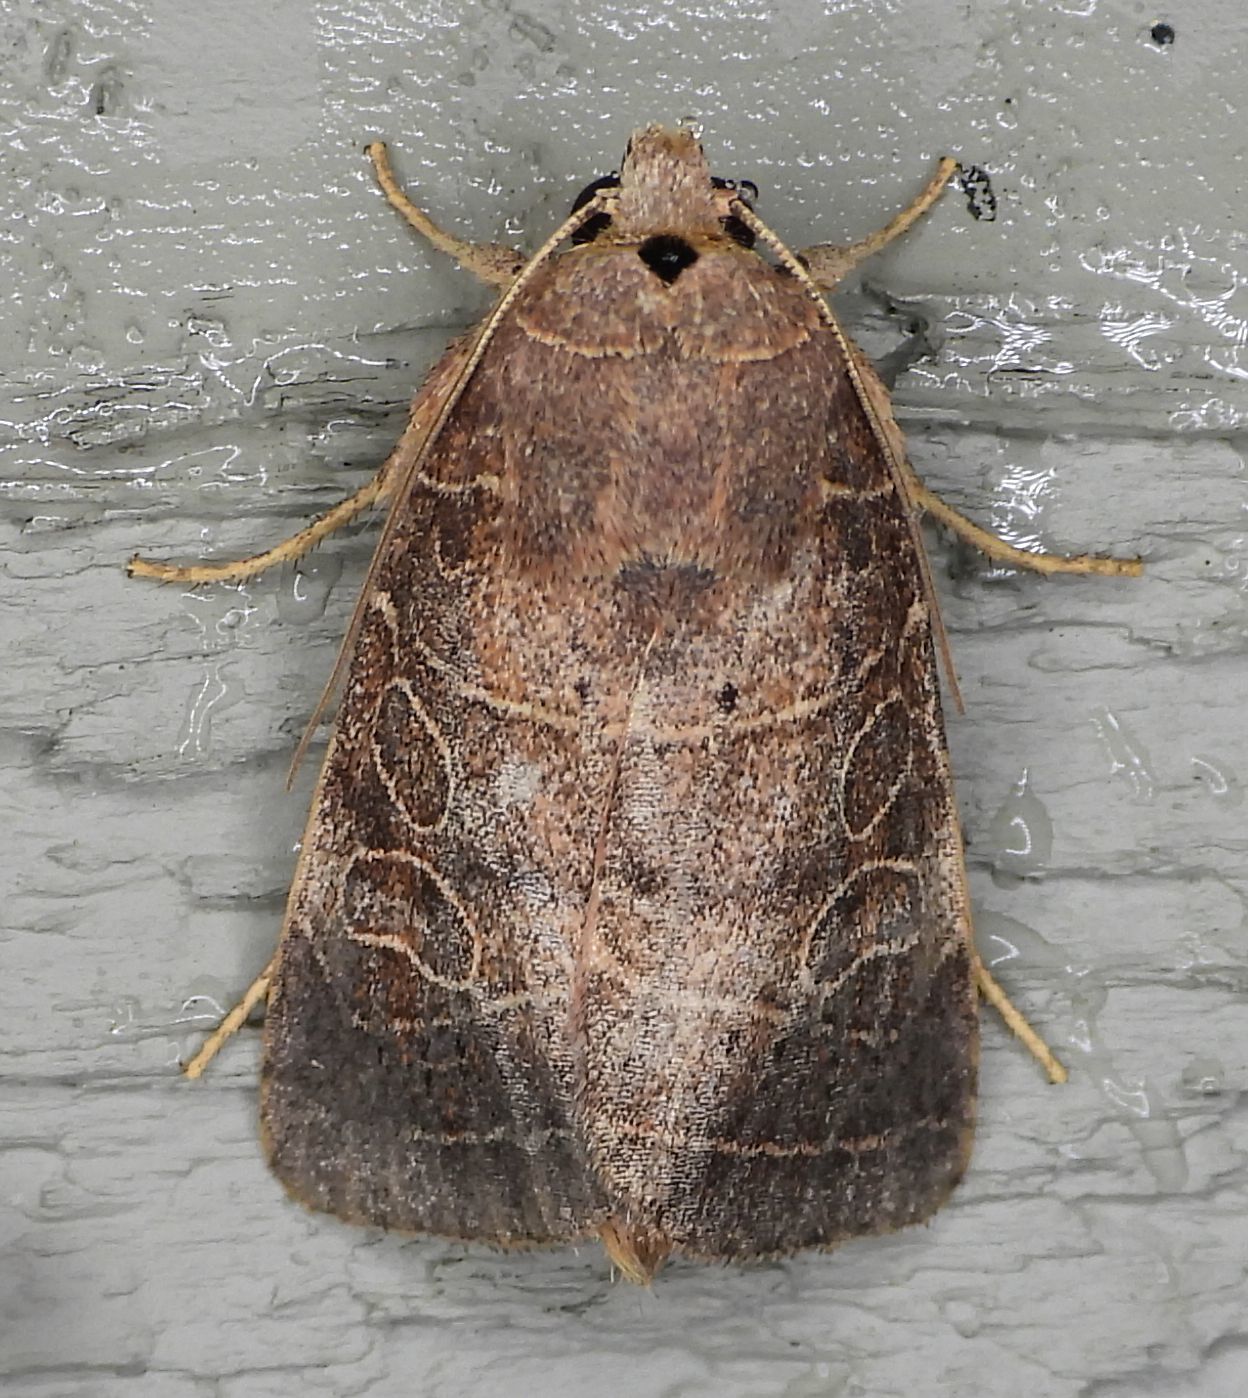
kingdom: Animalia
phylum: Arthropoda
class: Insecta
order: Lepidoptera
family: Noctuidae
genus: Orthodes
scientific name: Orthodes majuscula
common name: Rustic quaker
